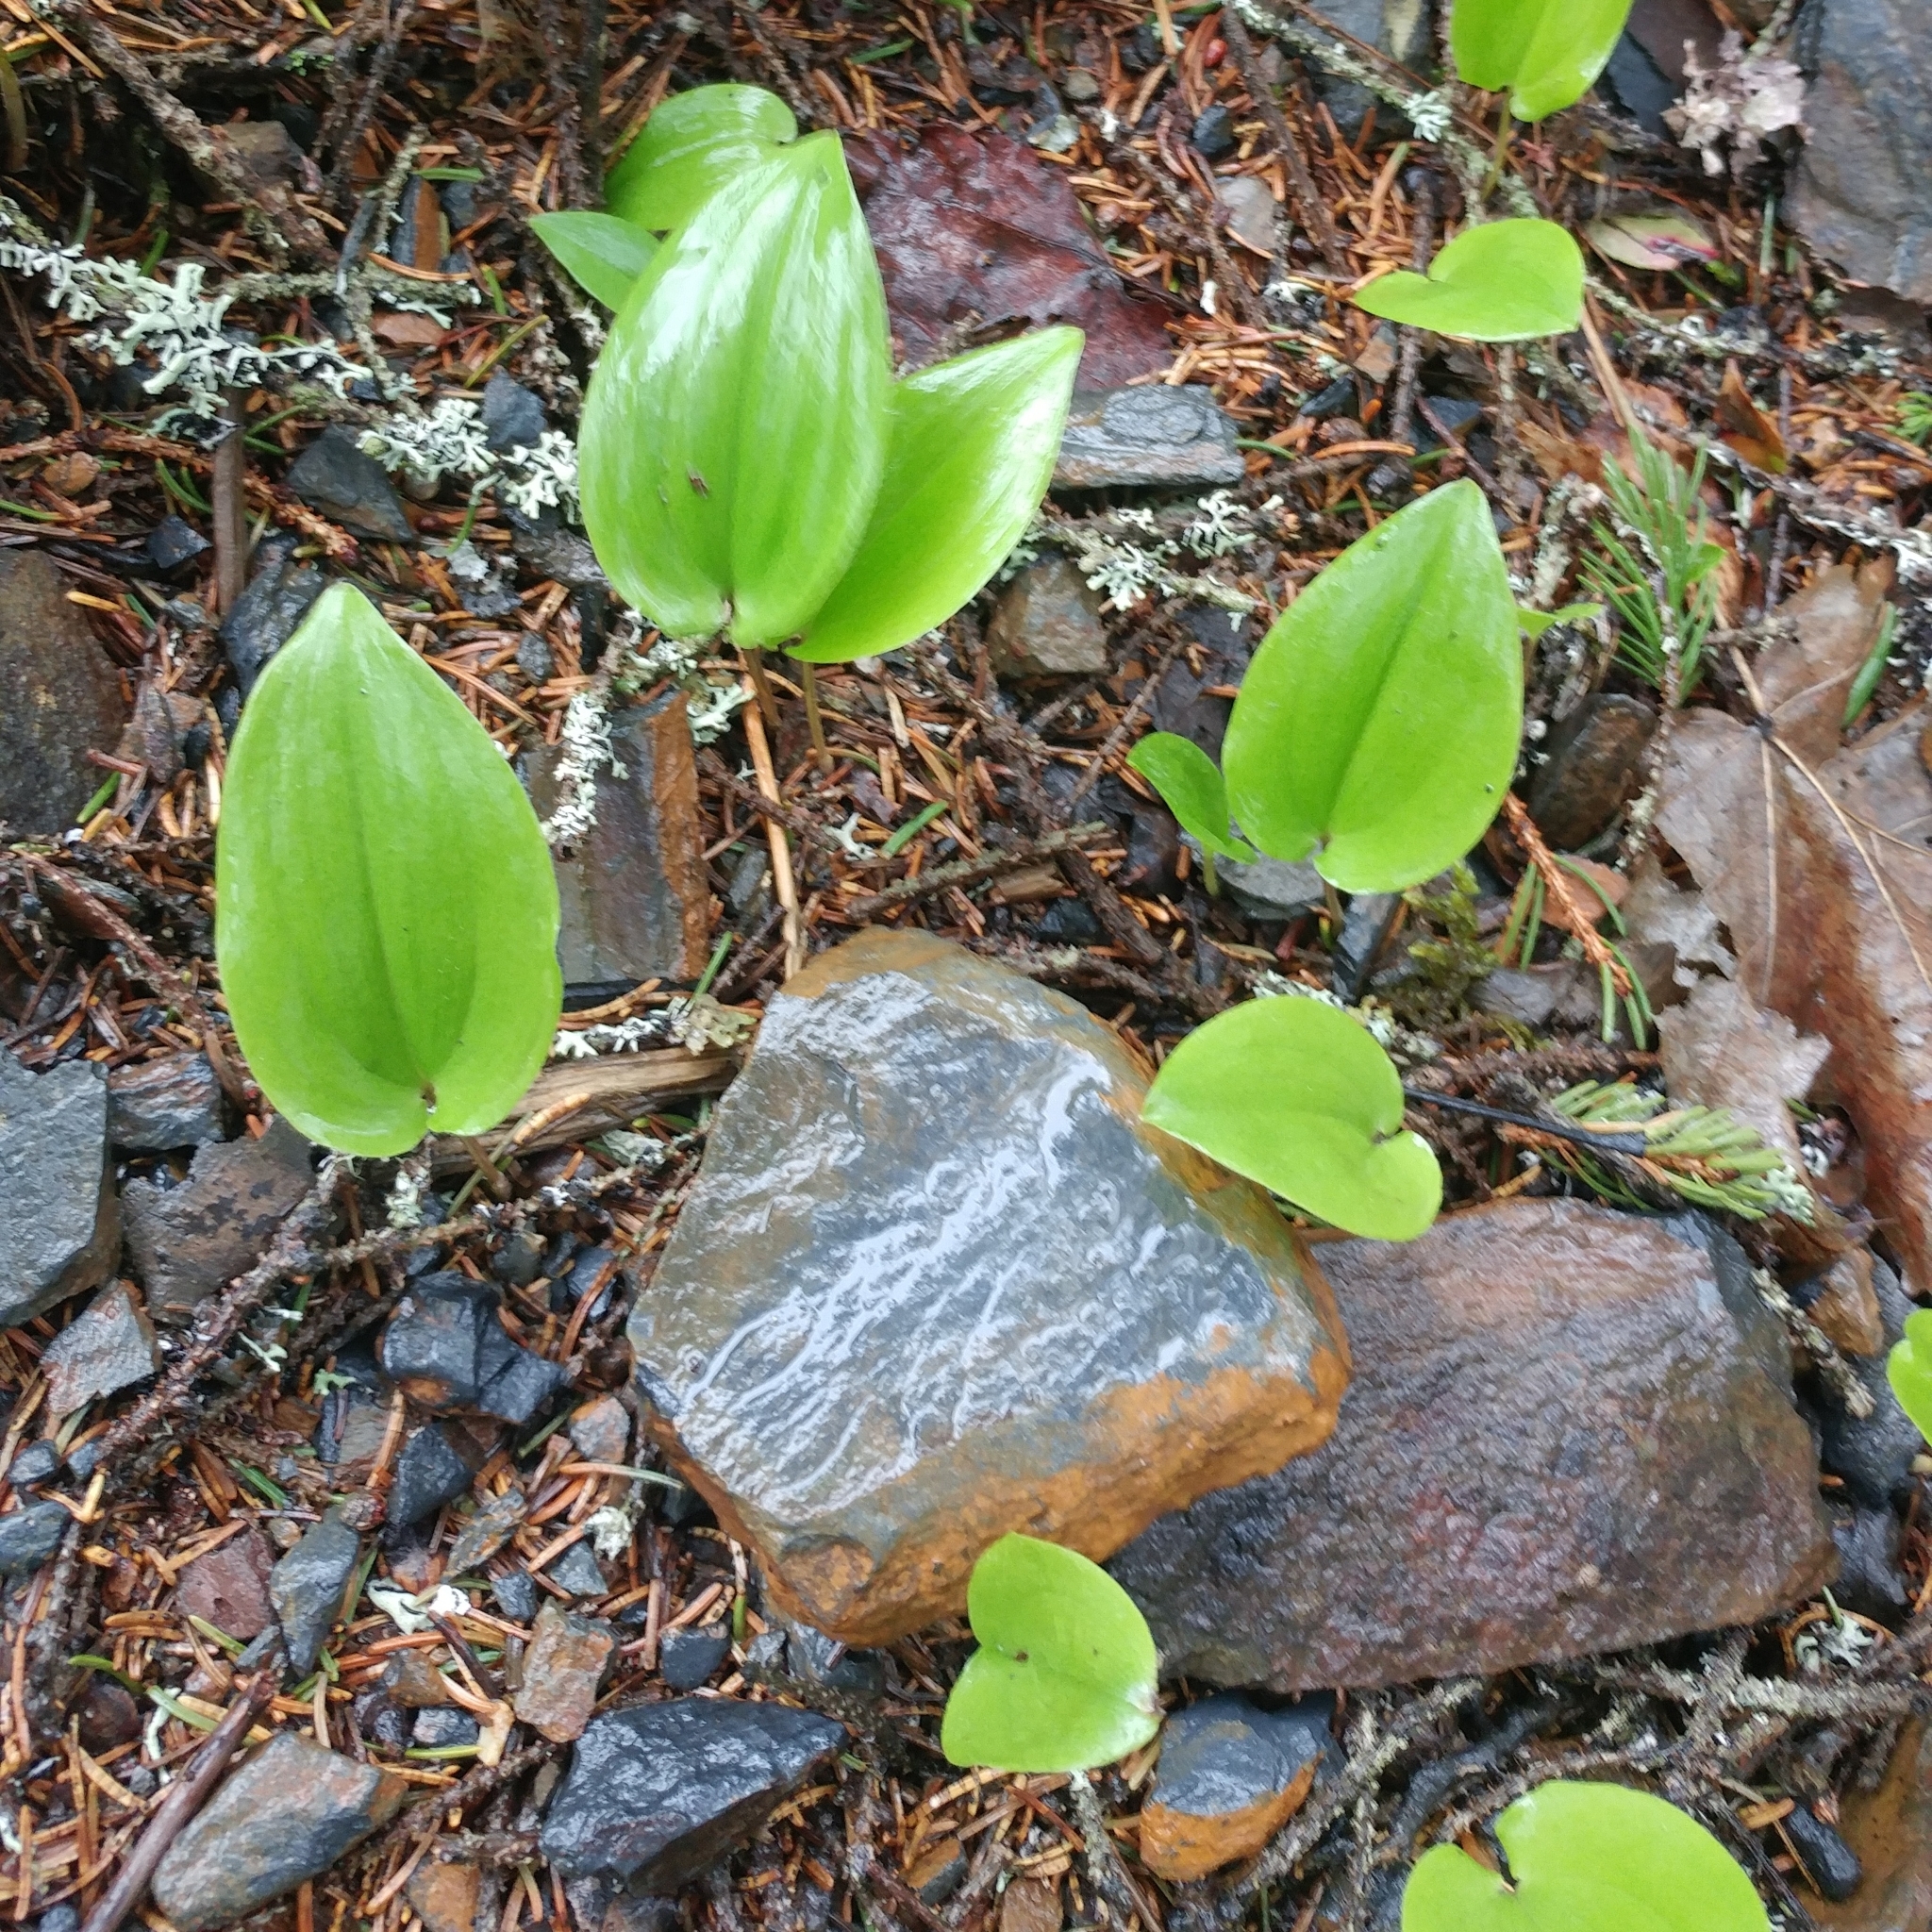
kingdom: Plantae
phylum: Tracheophyta
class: Liliopsida
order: Asparagales
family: Asparagaceae
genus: Maianthemum
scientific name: Maianthemum canadense
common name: False lily-of-the-valley
